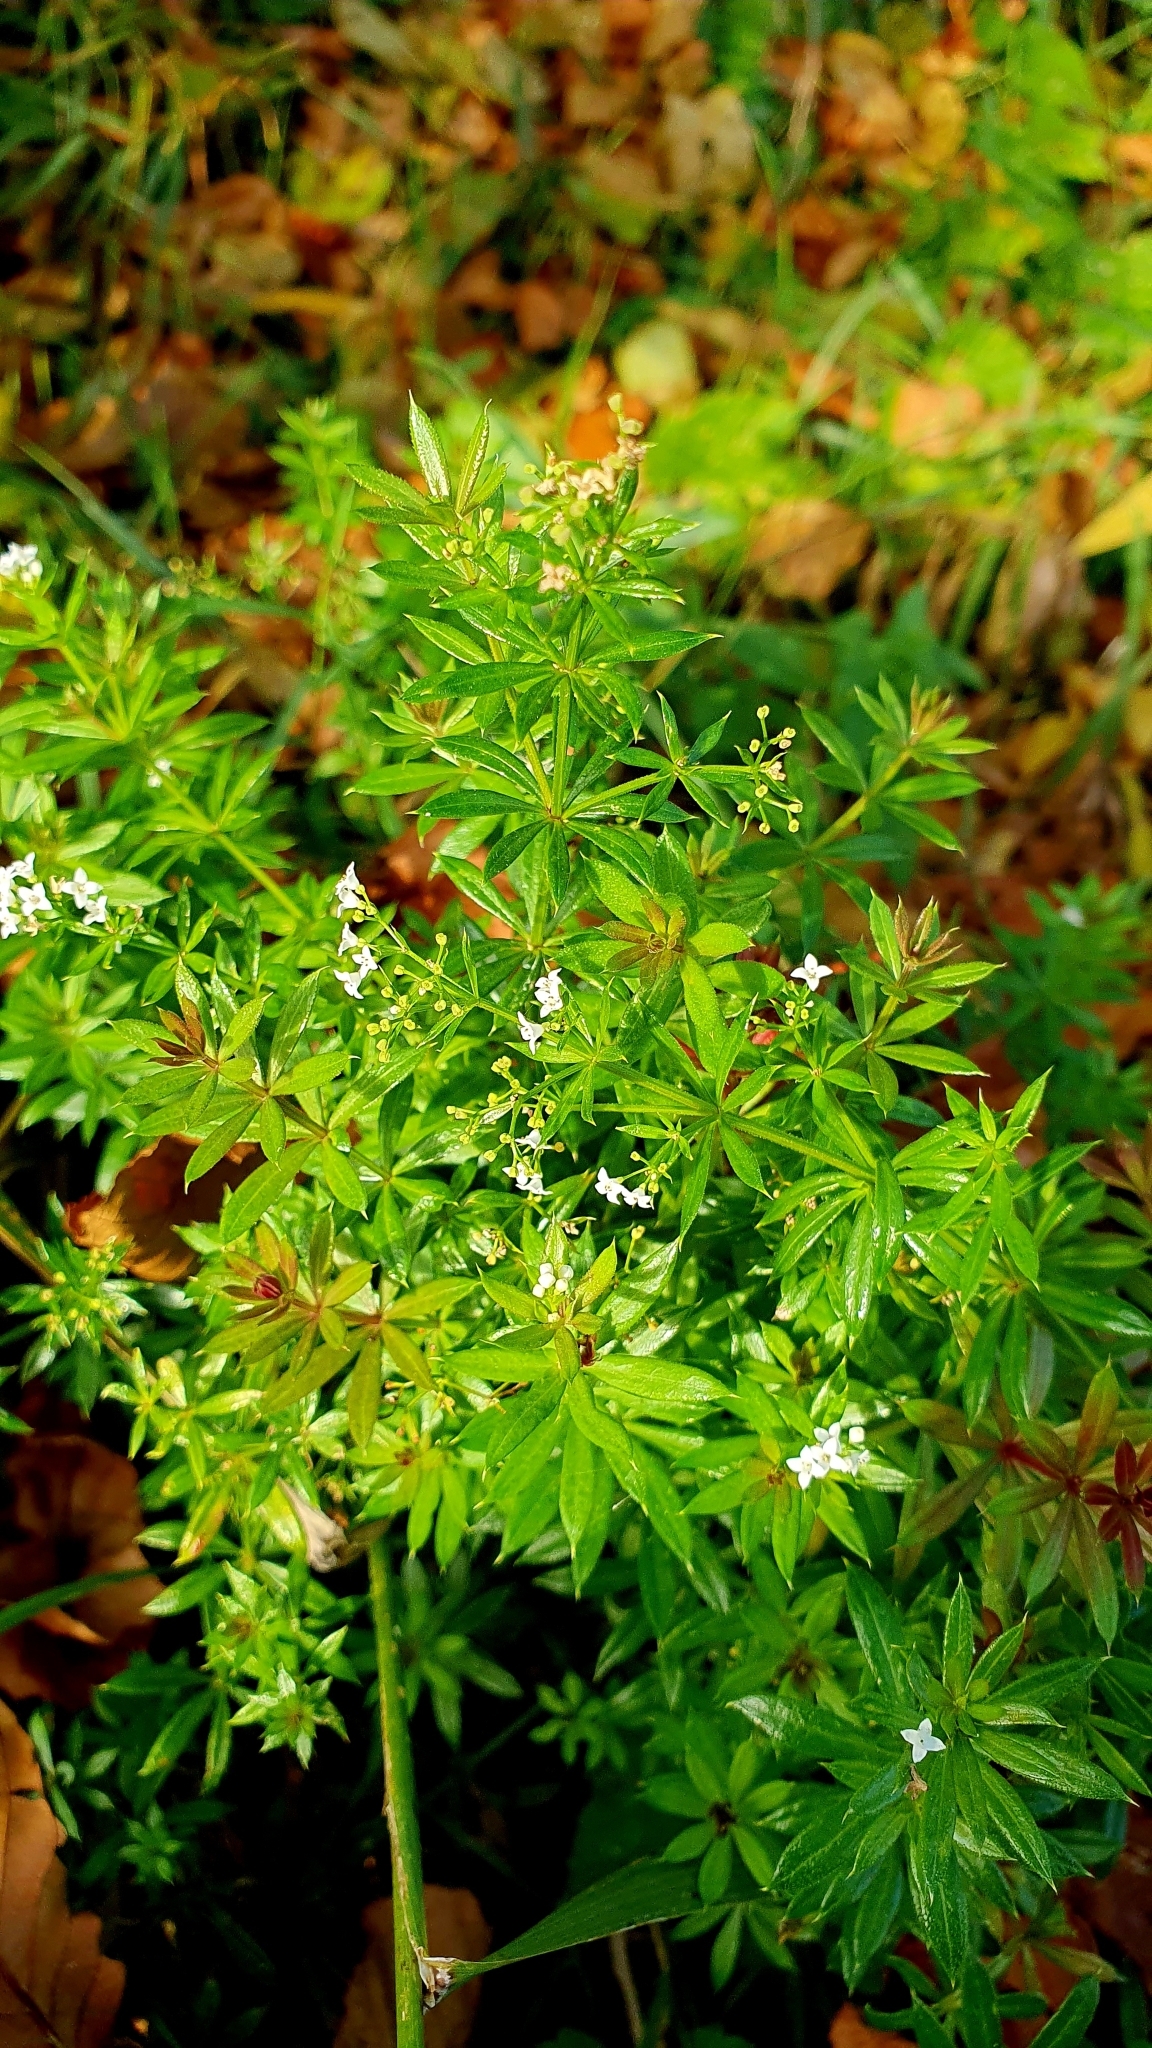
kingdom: Plantae
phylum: Tracheophyta
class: Magnoliopsida
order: Gentianales
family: Rubiaceae
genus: Galium
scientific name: Galium rivale
